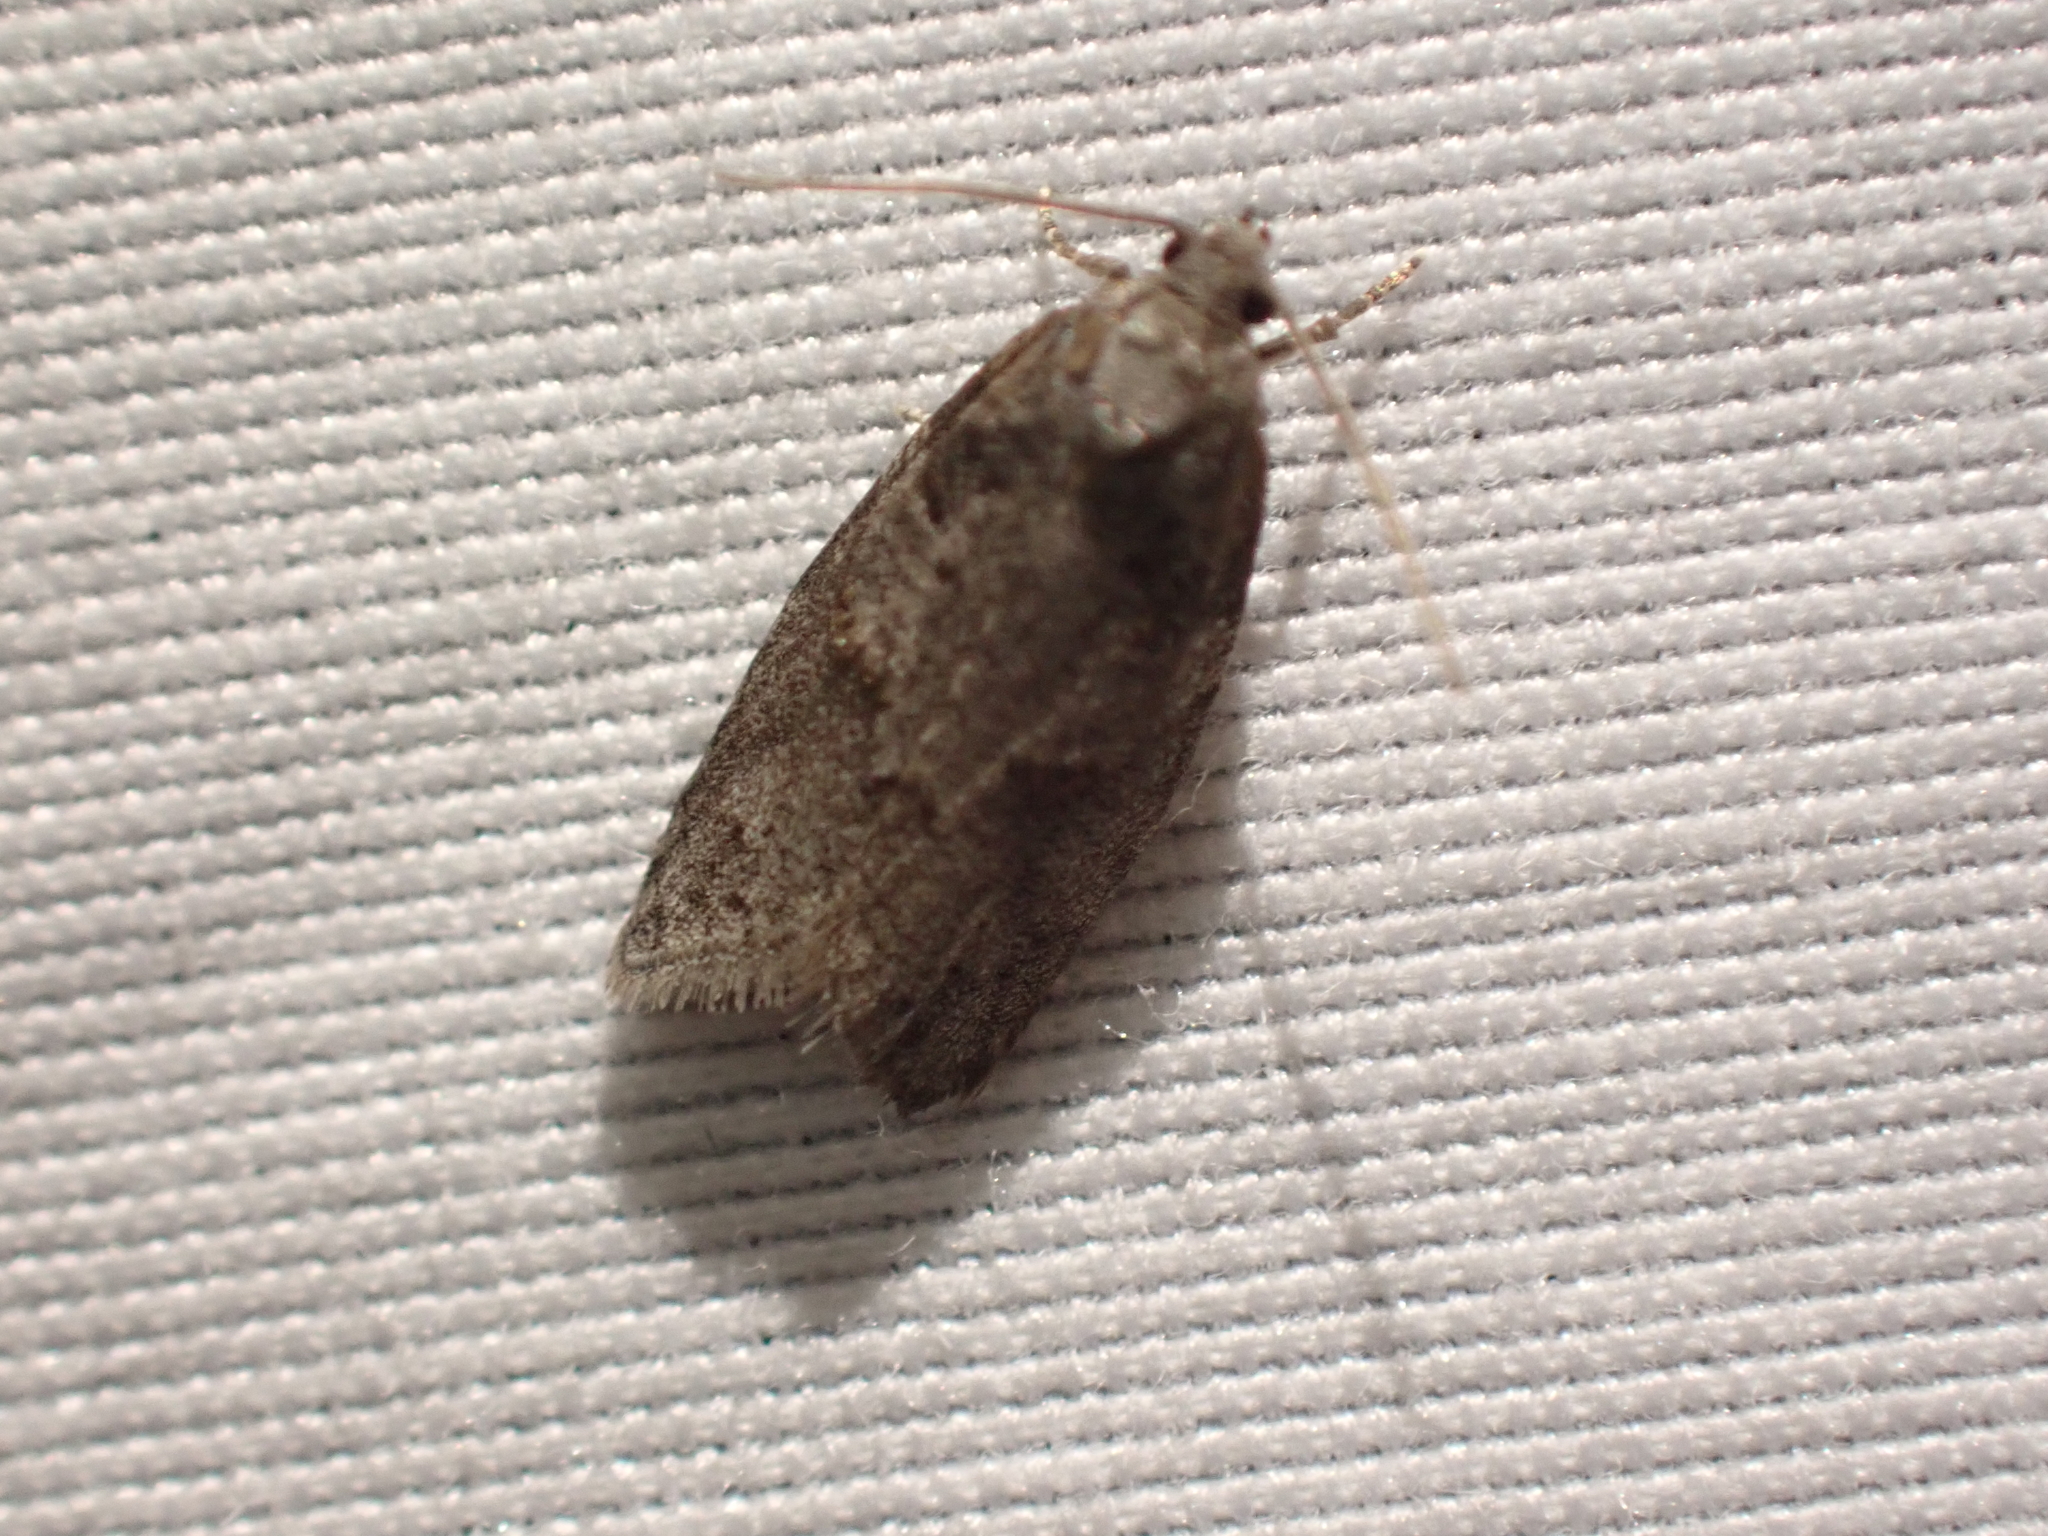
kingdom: Animalia
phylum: Arthropoda
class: Insecta
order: Lepidoptera
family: Tortricidae
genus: Decodes
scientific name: Decodes fragariana
